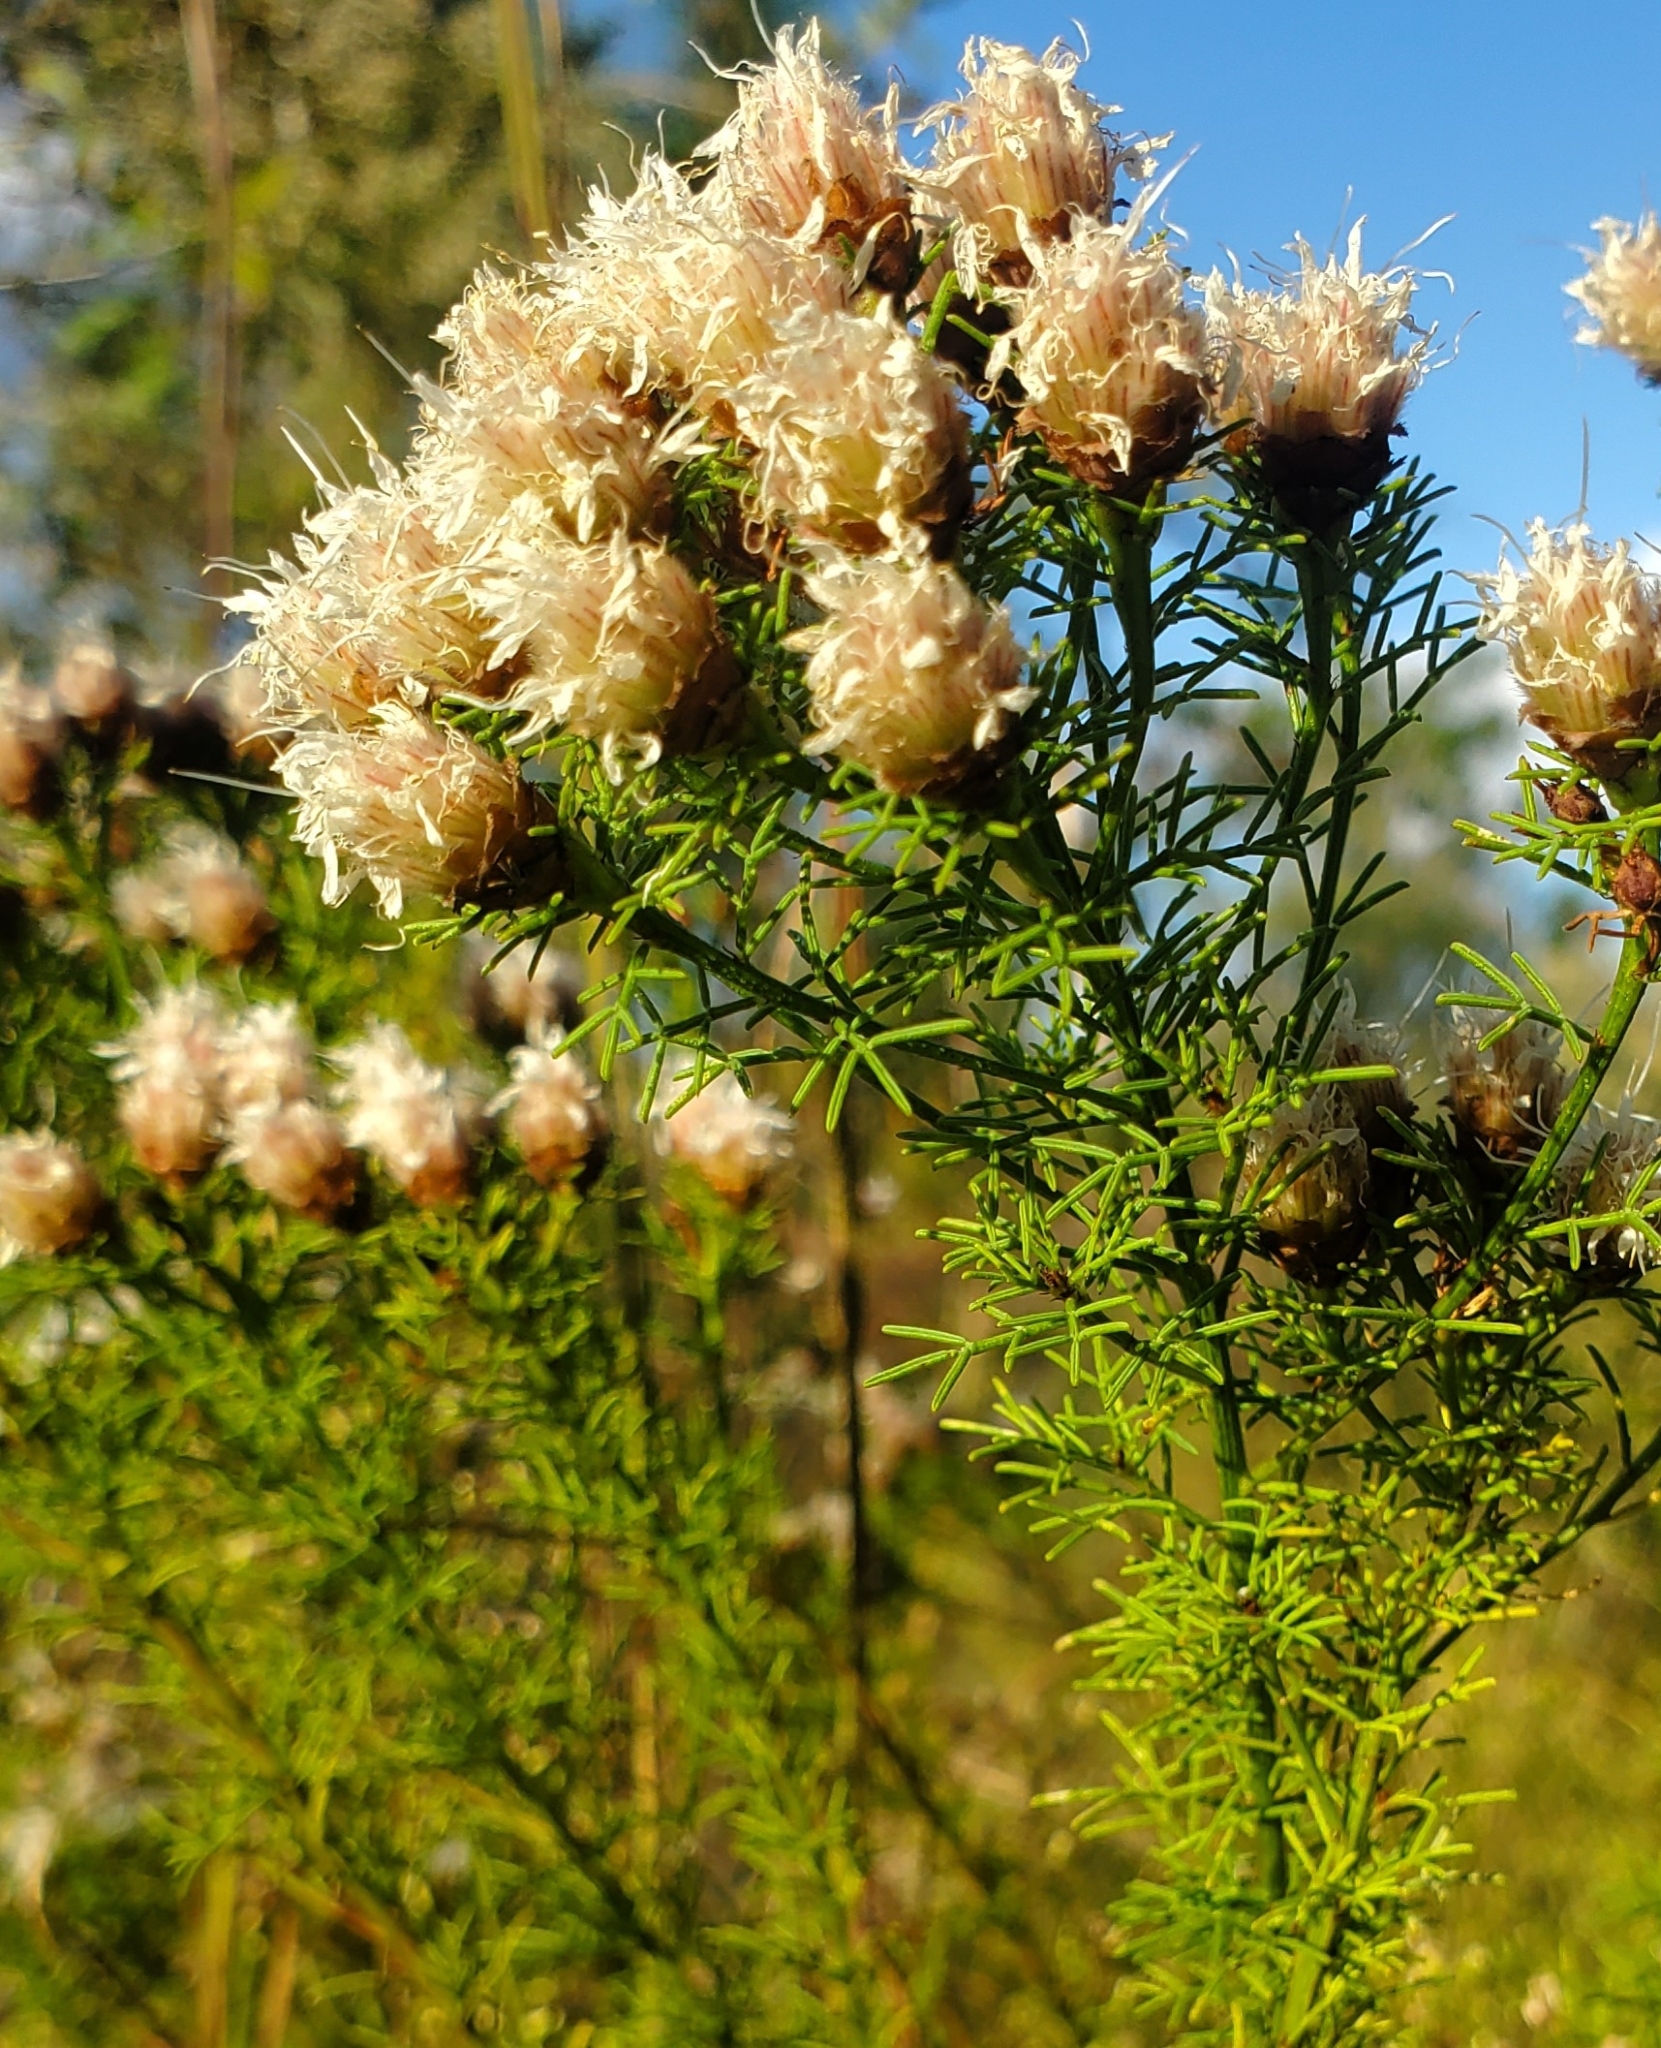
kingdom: Plantae
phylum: Tracheophyta
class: Magnoliopsida
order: Fabales
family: Fabaceae
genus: Dalea
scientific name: Dalea pinnata
